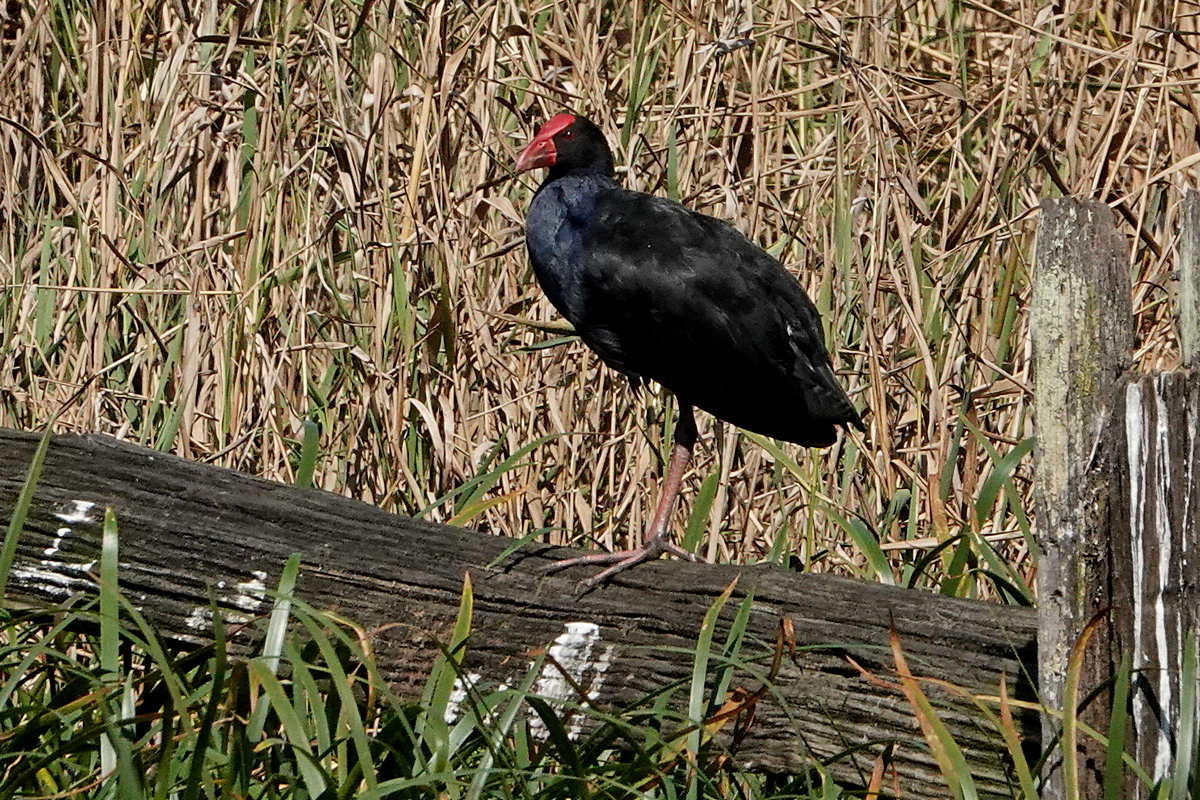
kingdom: Animalia
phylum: Chordata
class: Aves
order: Gruiformes
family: Rallidae
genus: Porphyrio
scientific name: Porphyrio melanotus
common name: Australasian swamphen
